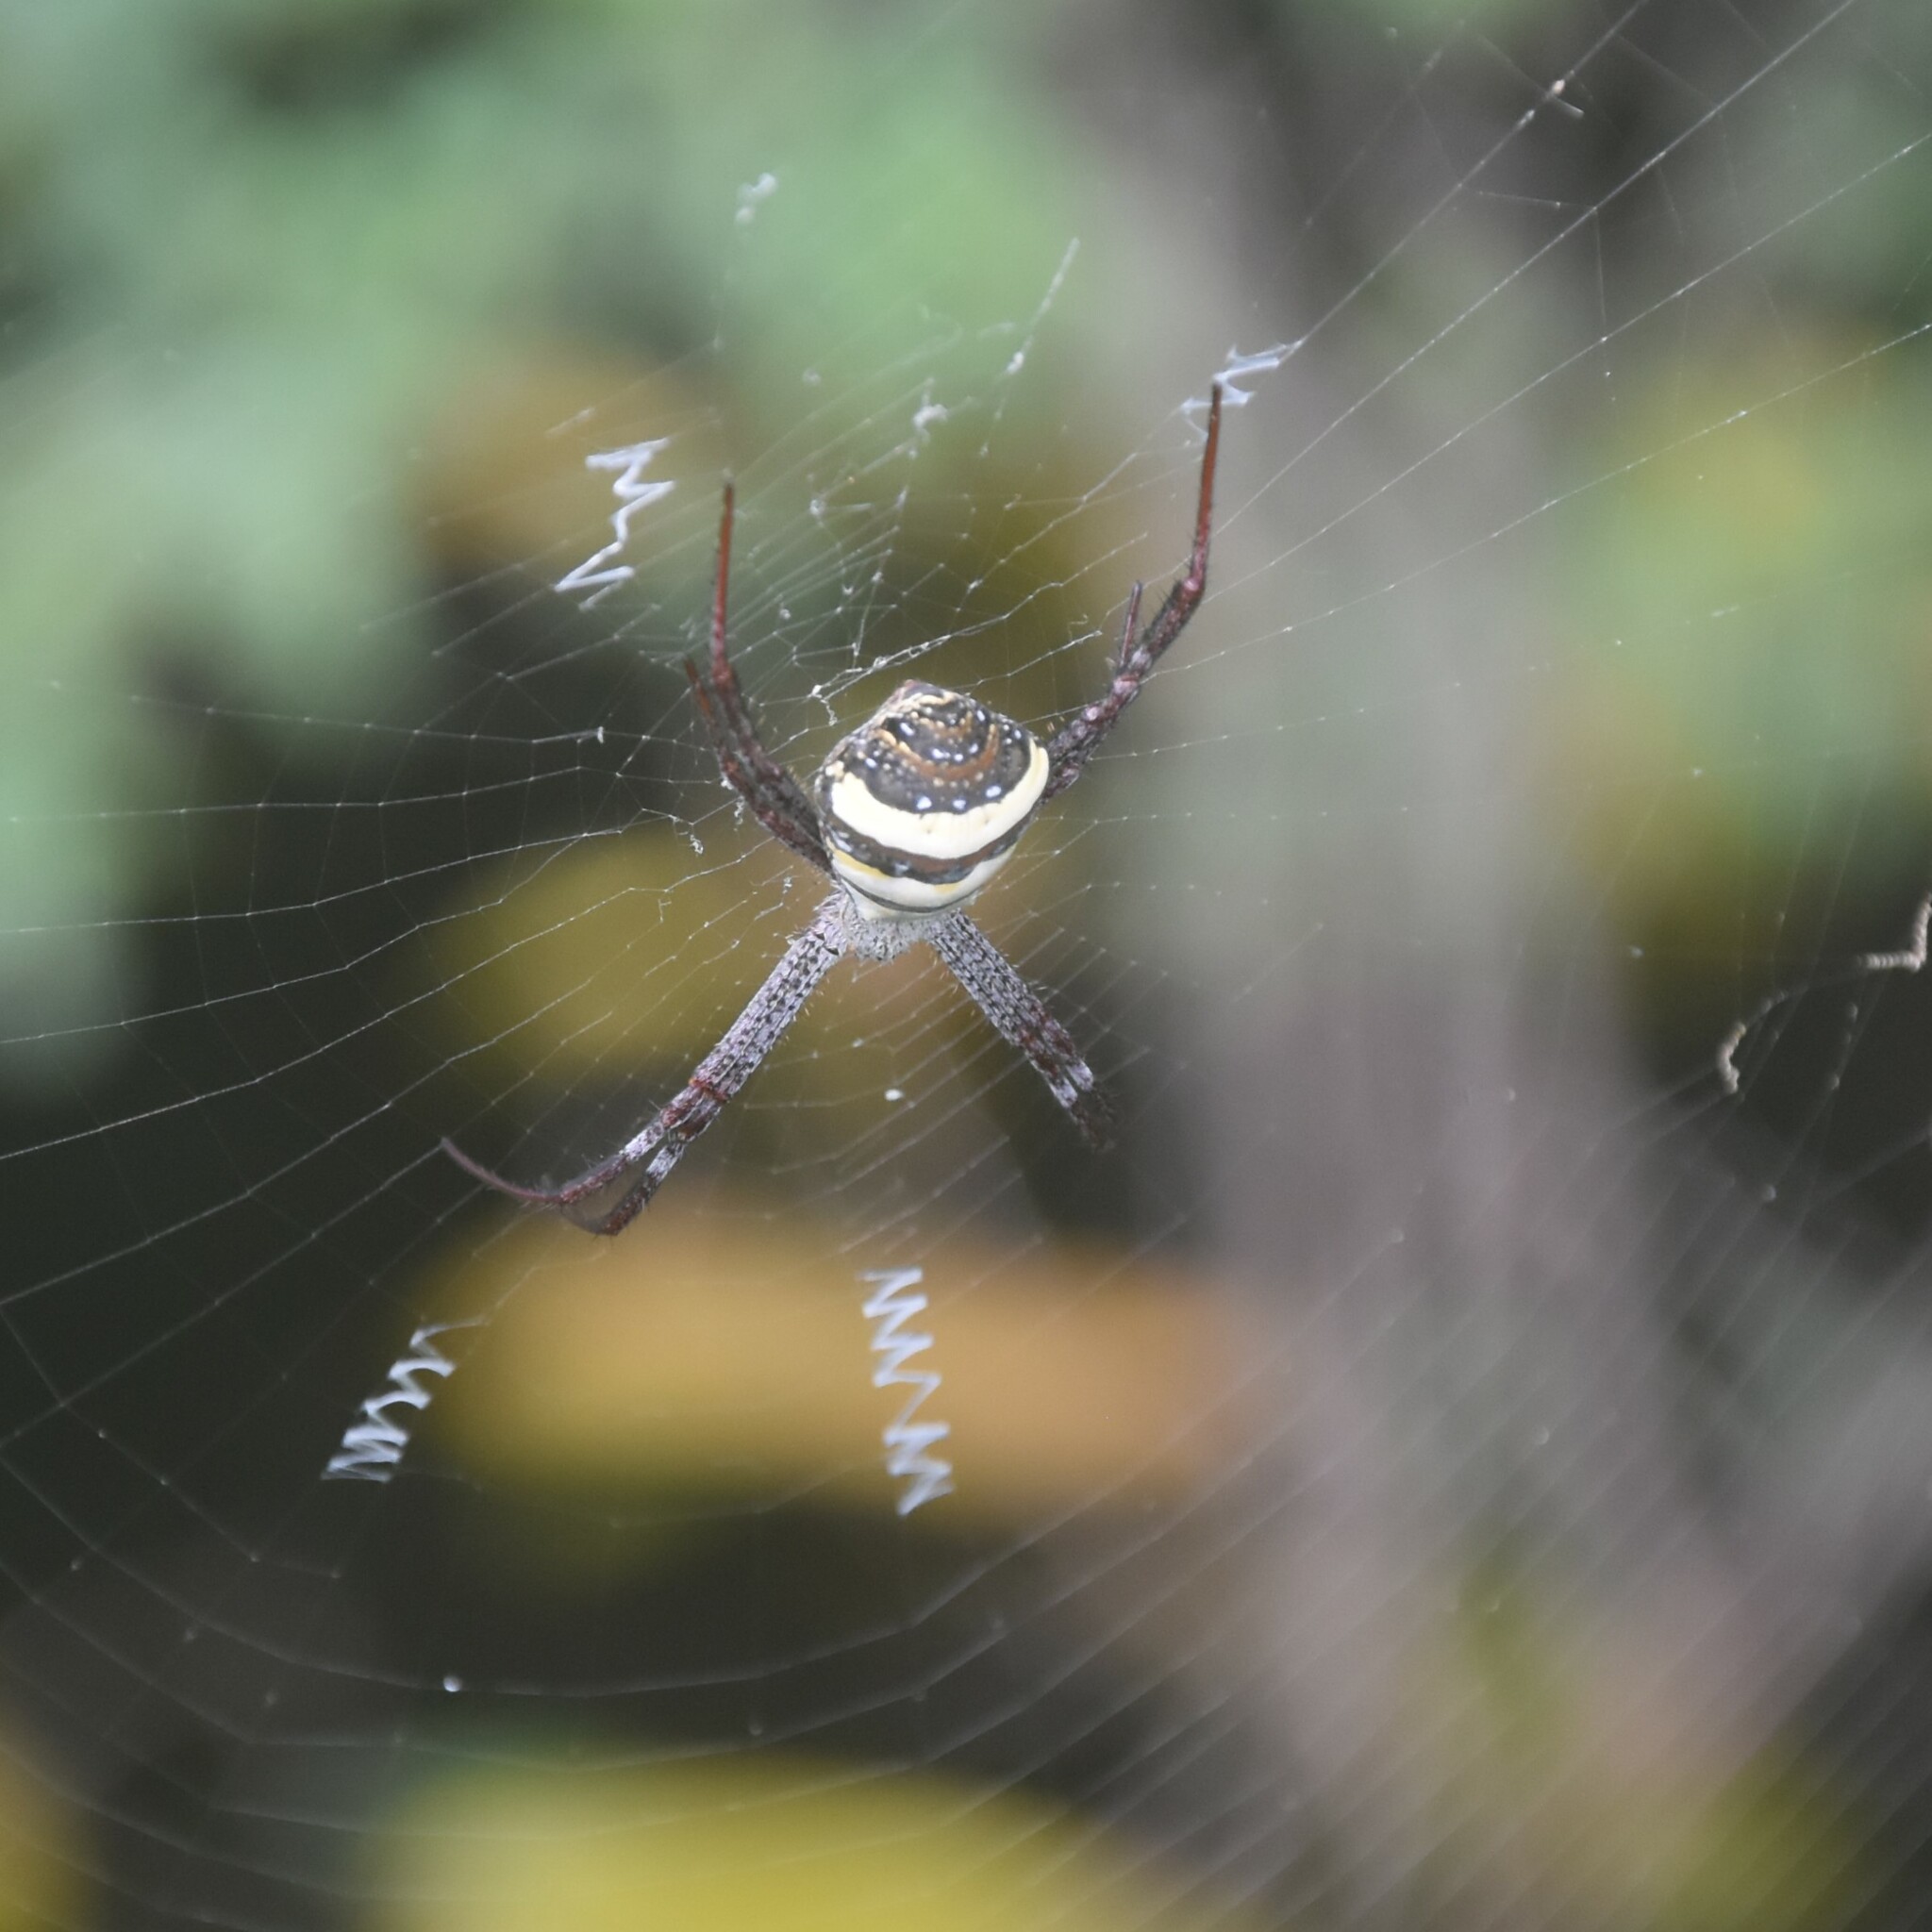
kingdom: Animalia
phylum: Arthropoda
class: Arachnida
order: Araneae
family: Araneidae
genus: Argiope
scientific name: Argiope pulchella
